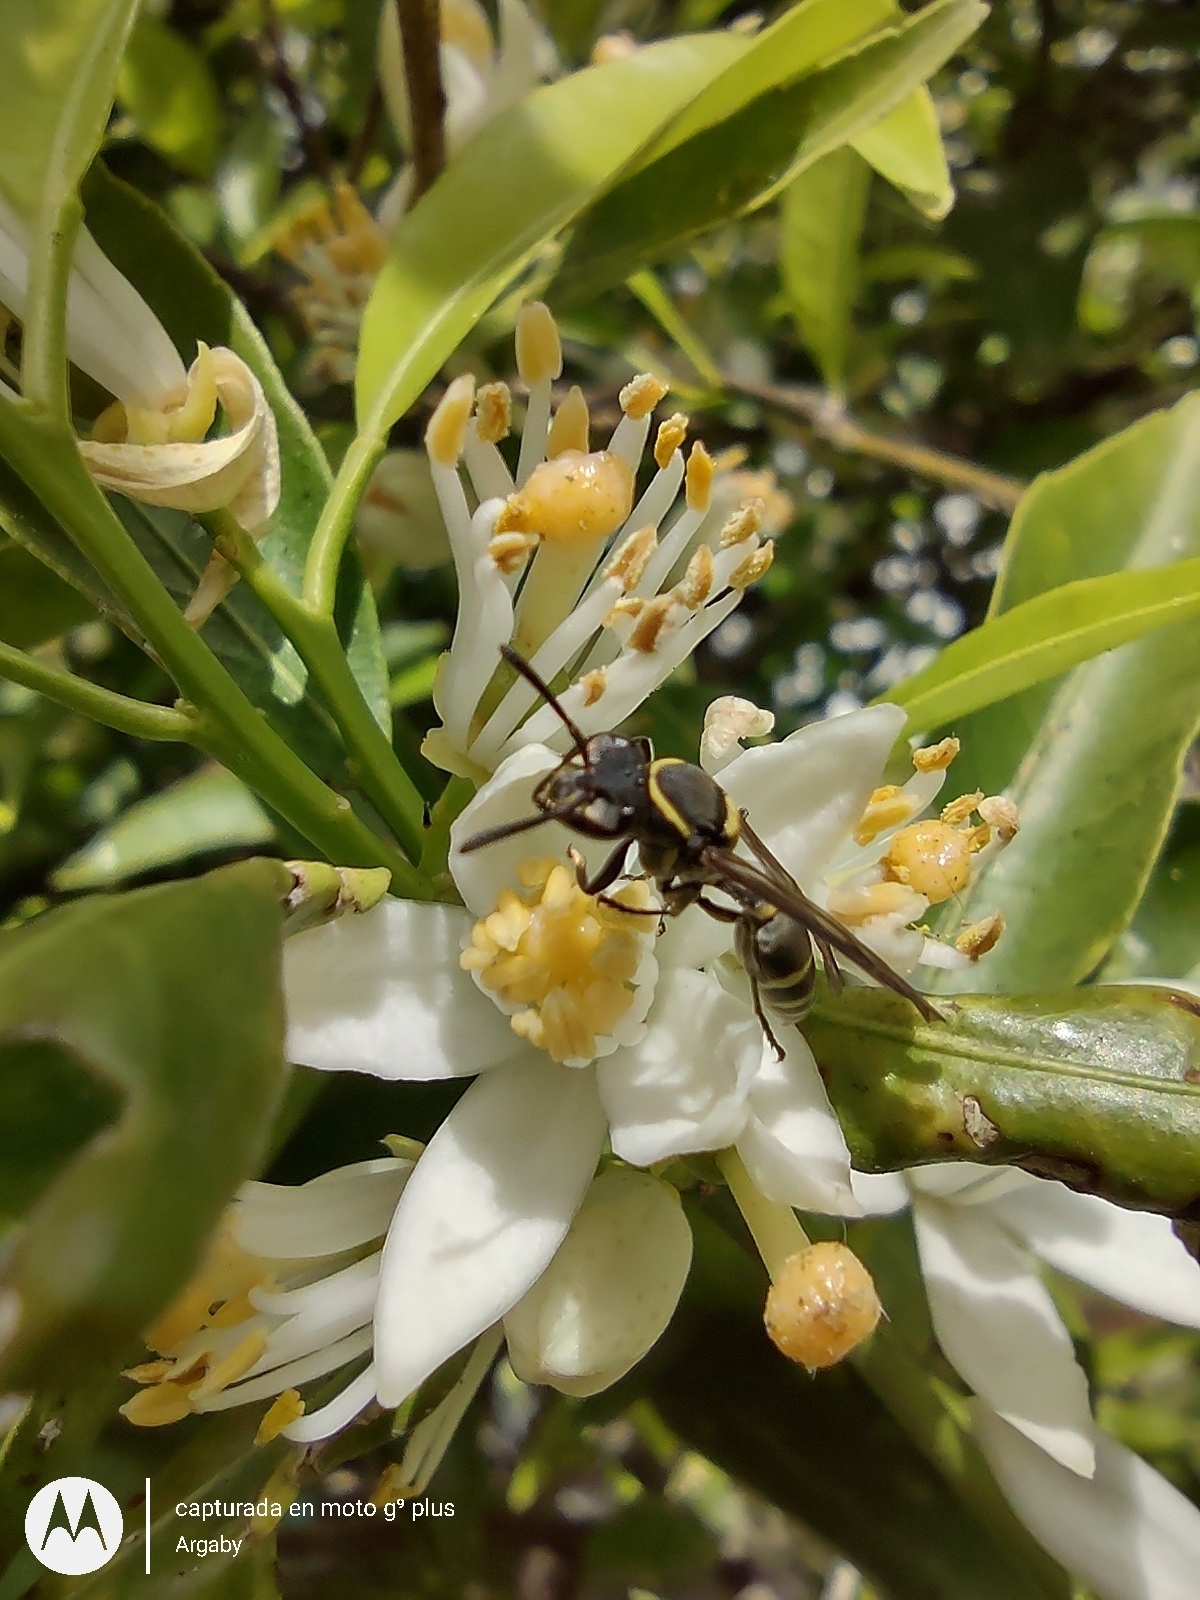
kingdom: Animalia
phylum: Arthropoda
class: Insecta
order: Hymenoptera
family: Eumenidae
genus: Polybia
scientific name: Polybia occidentalis
